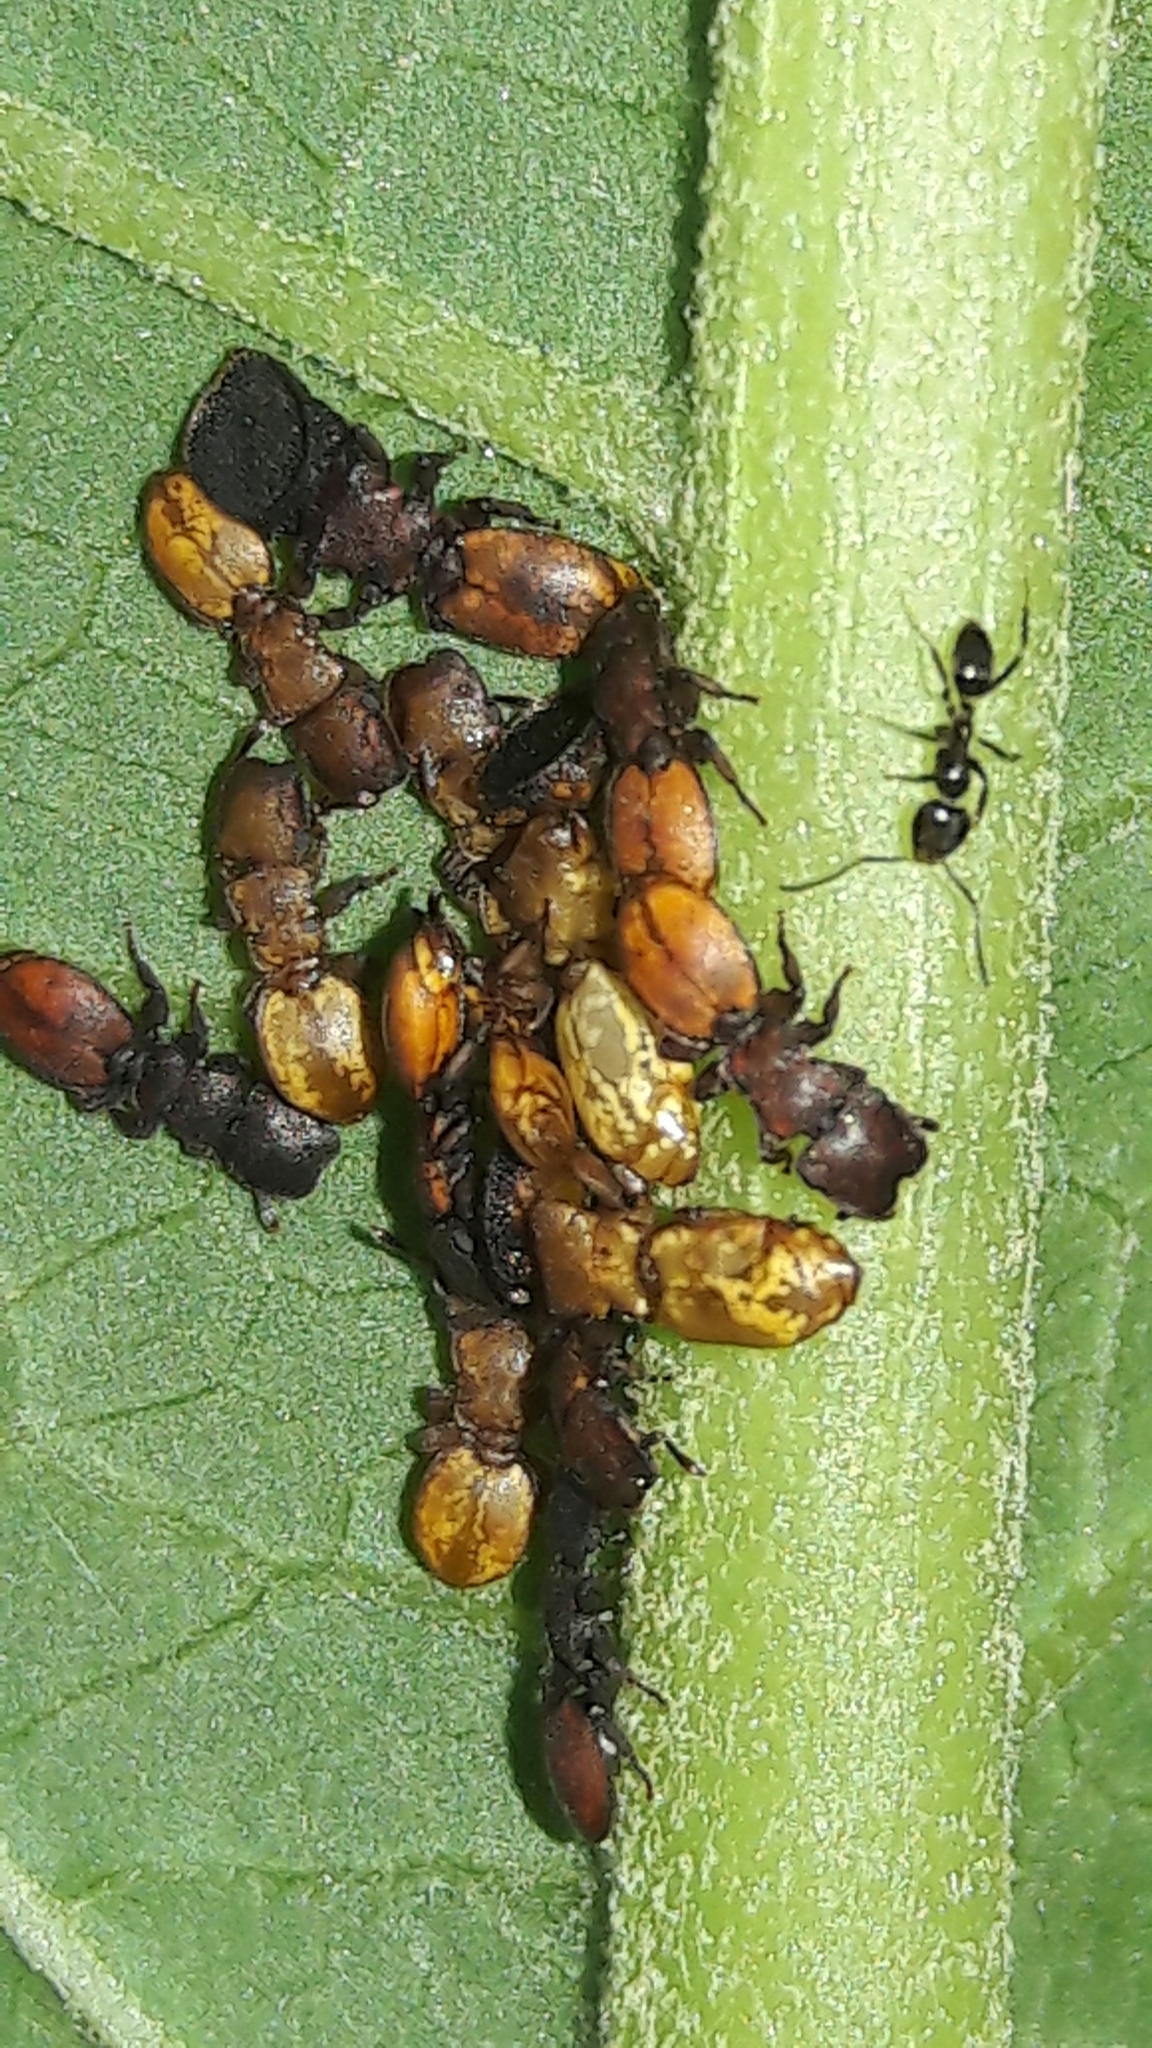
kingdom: Animalia
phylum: Arthropoda
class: Insecta
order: Hymenoptera
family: Formicidae
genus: Cephalotes
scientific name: Cephalotes
